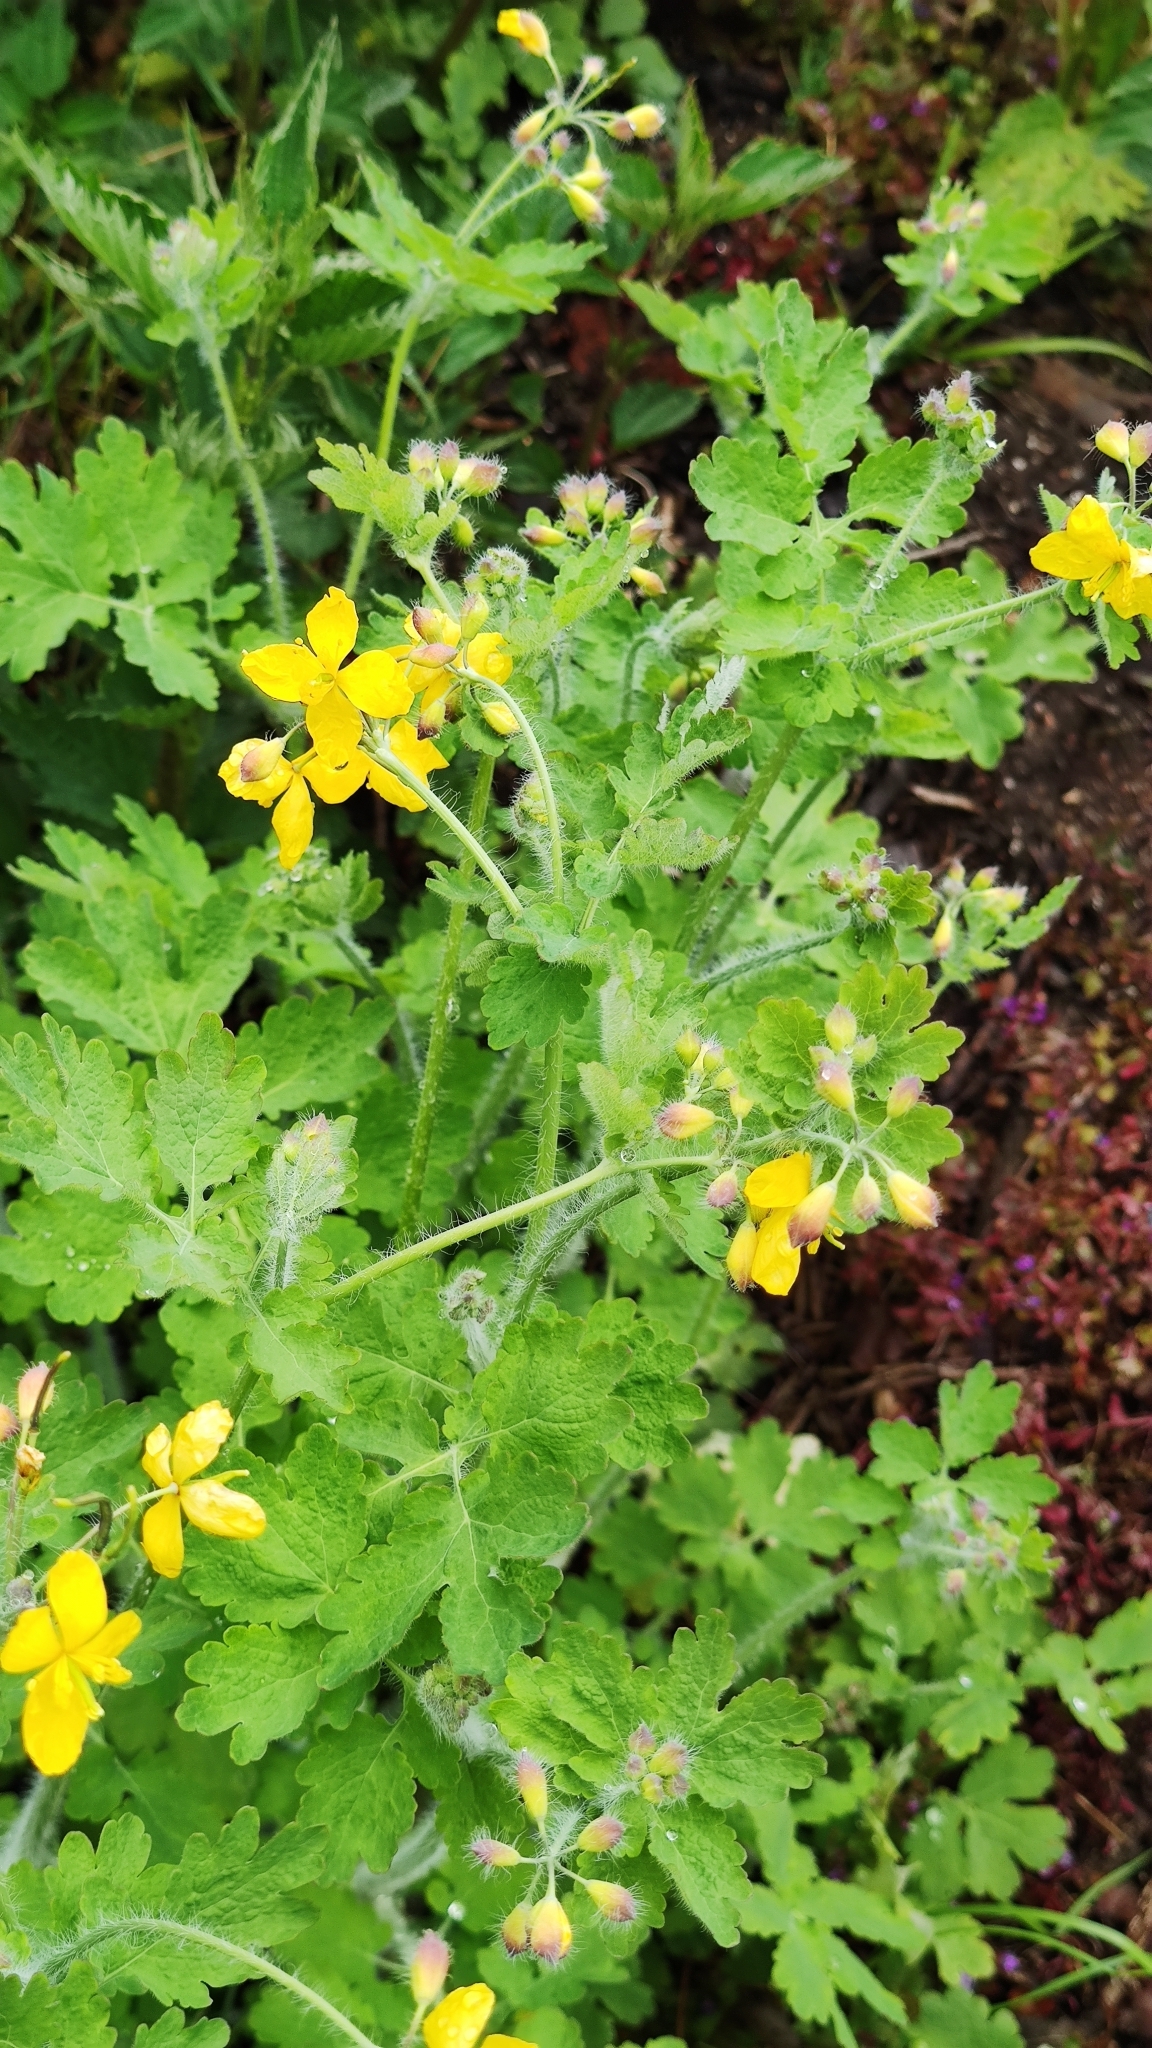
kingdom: Plantae
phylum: Tracheophyta
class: Magnoliopsida
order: Ranunculales
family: Papaveraceae
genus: Chelidonium
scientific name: Chelidonium majus
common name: Greater celandine
